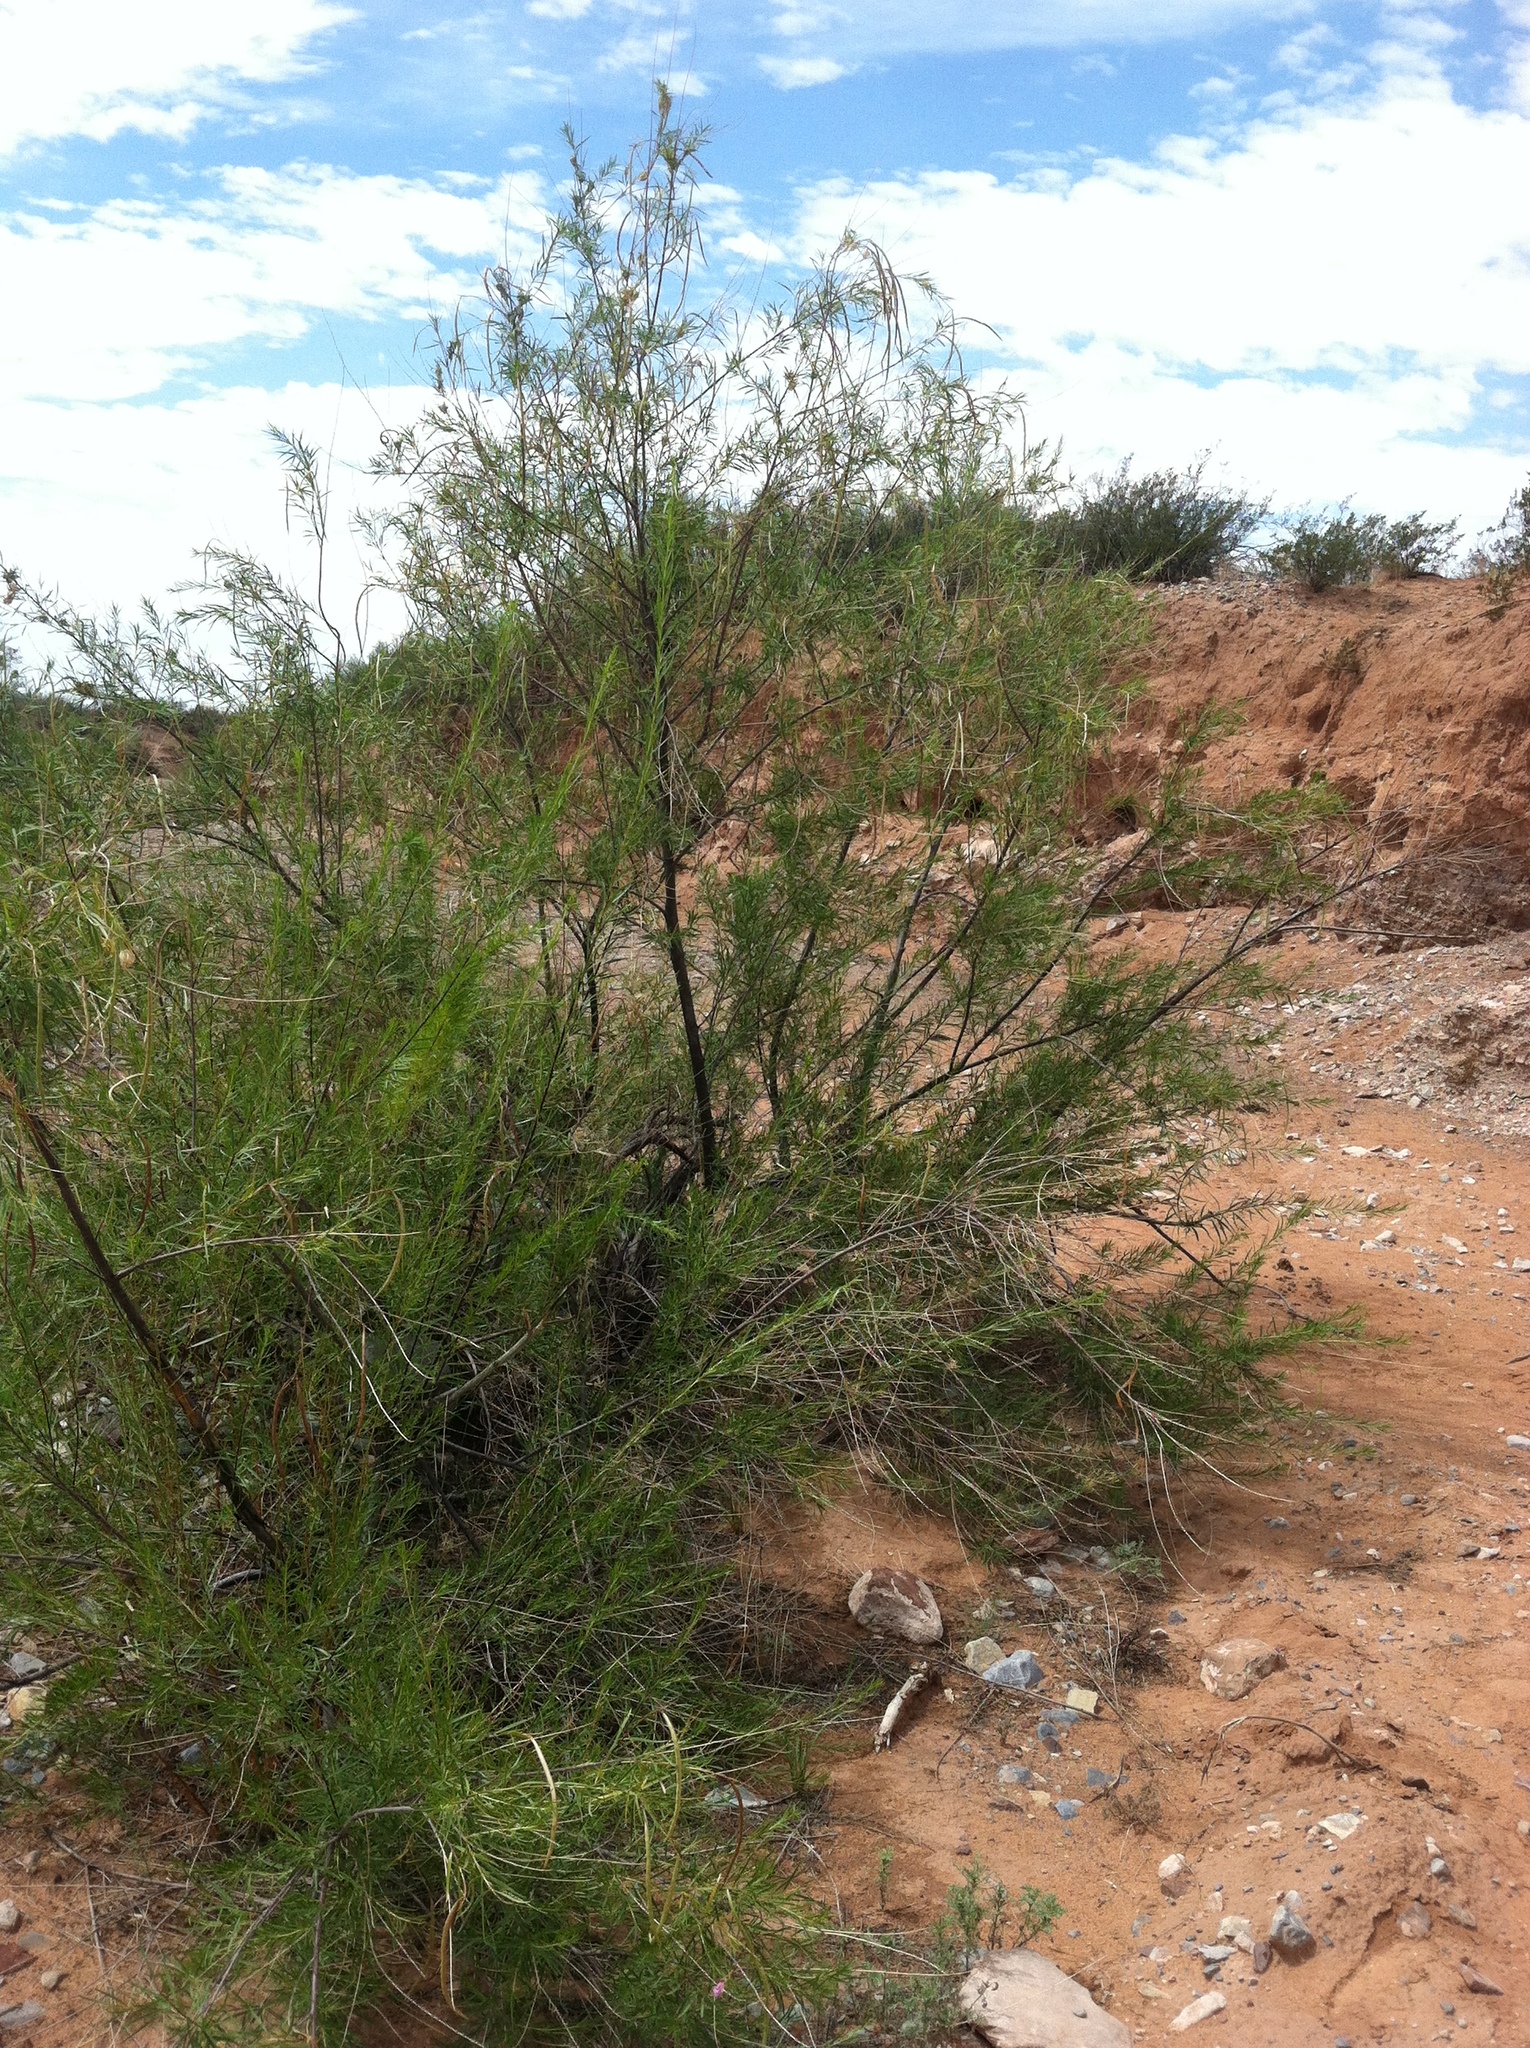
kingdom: Plantae
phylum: Tracheophyta
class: Magnoliopsida
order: Lamiales
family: Bignoniaceae
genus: Chilopsis
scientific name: Chilopsis linearis
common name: Desert-willow
